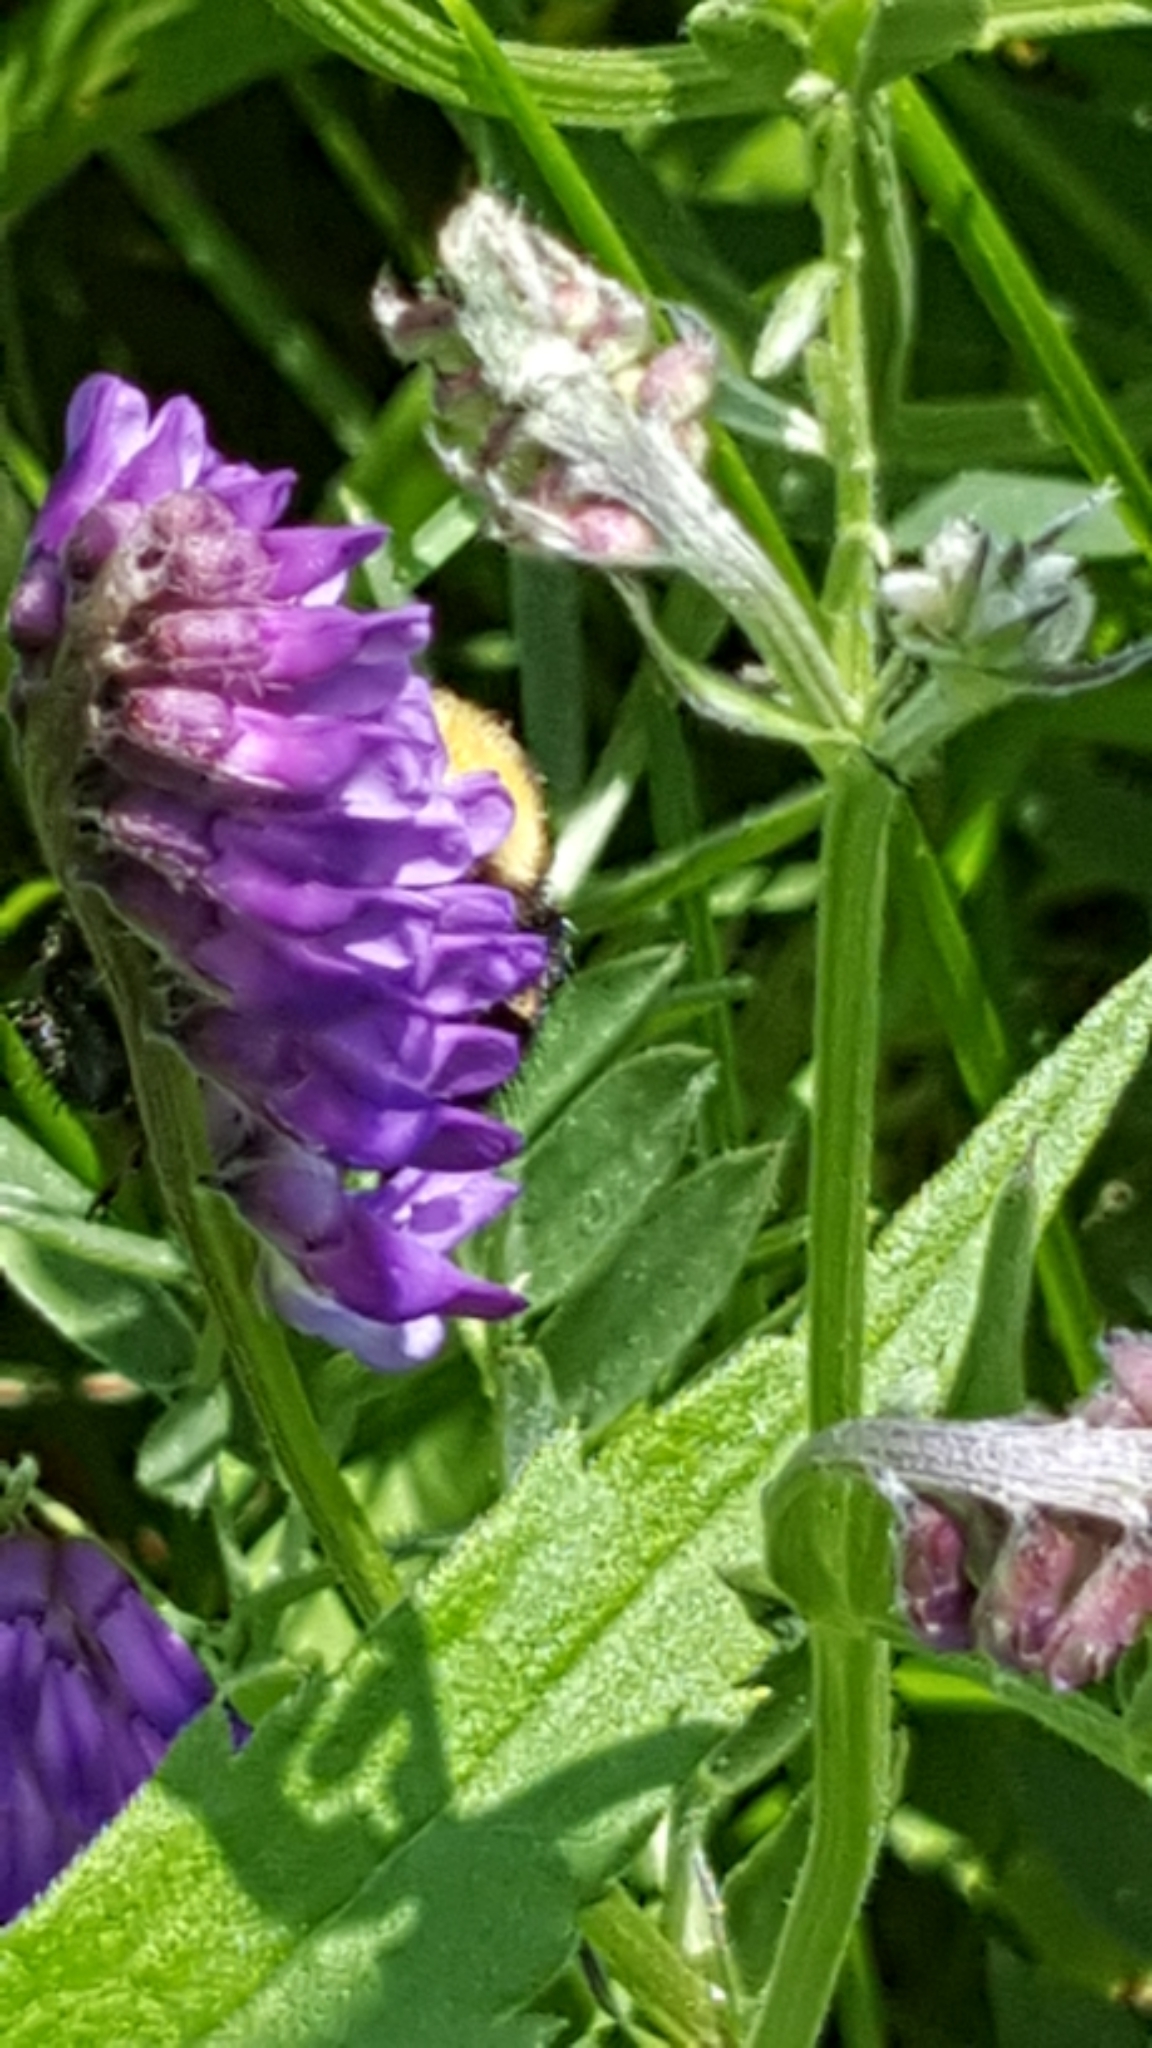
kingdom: Animalia
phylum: Arthropoda
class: Insecta
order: Hymenoptera
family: Apidae
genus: Bombus
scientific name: Bombus
